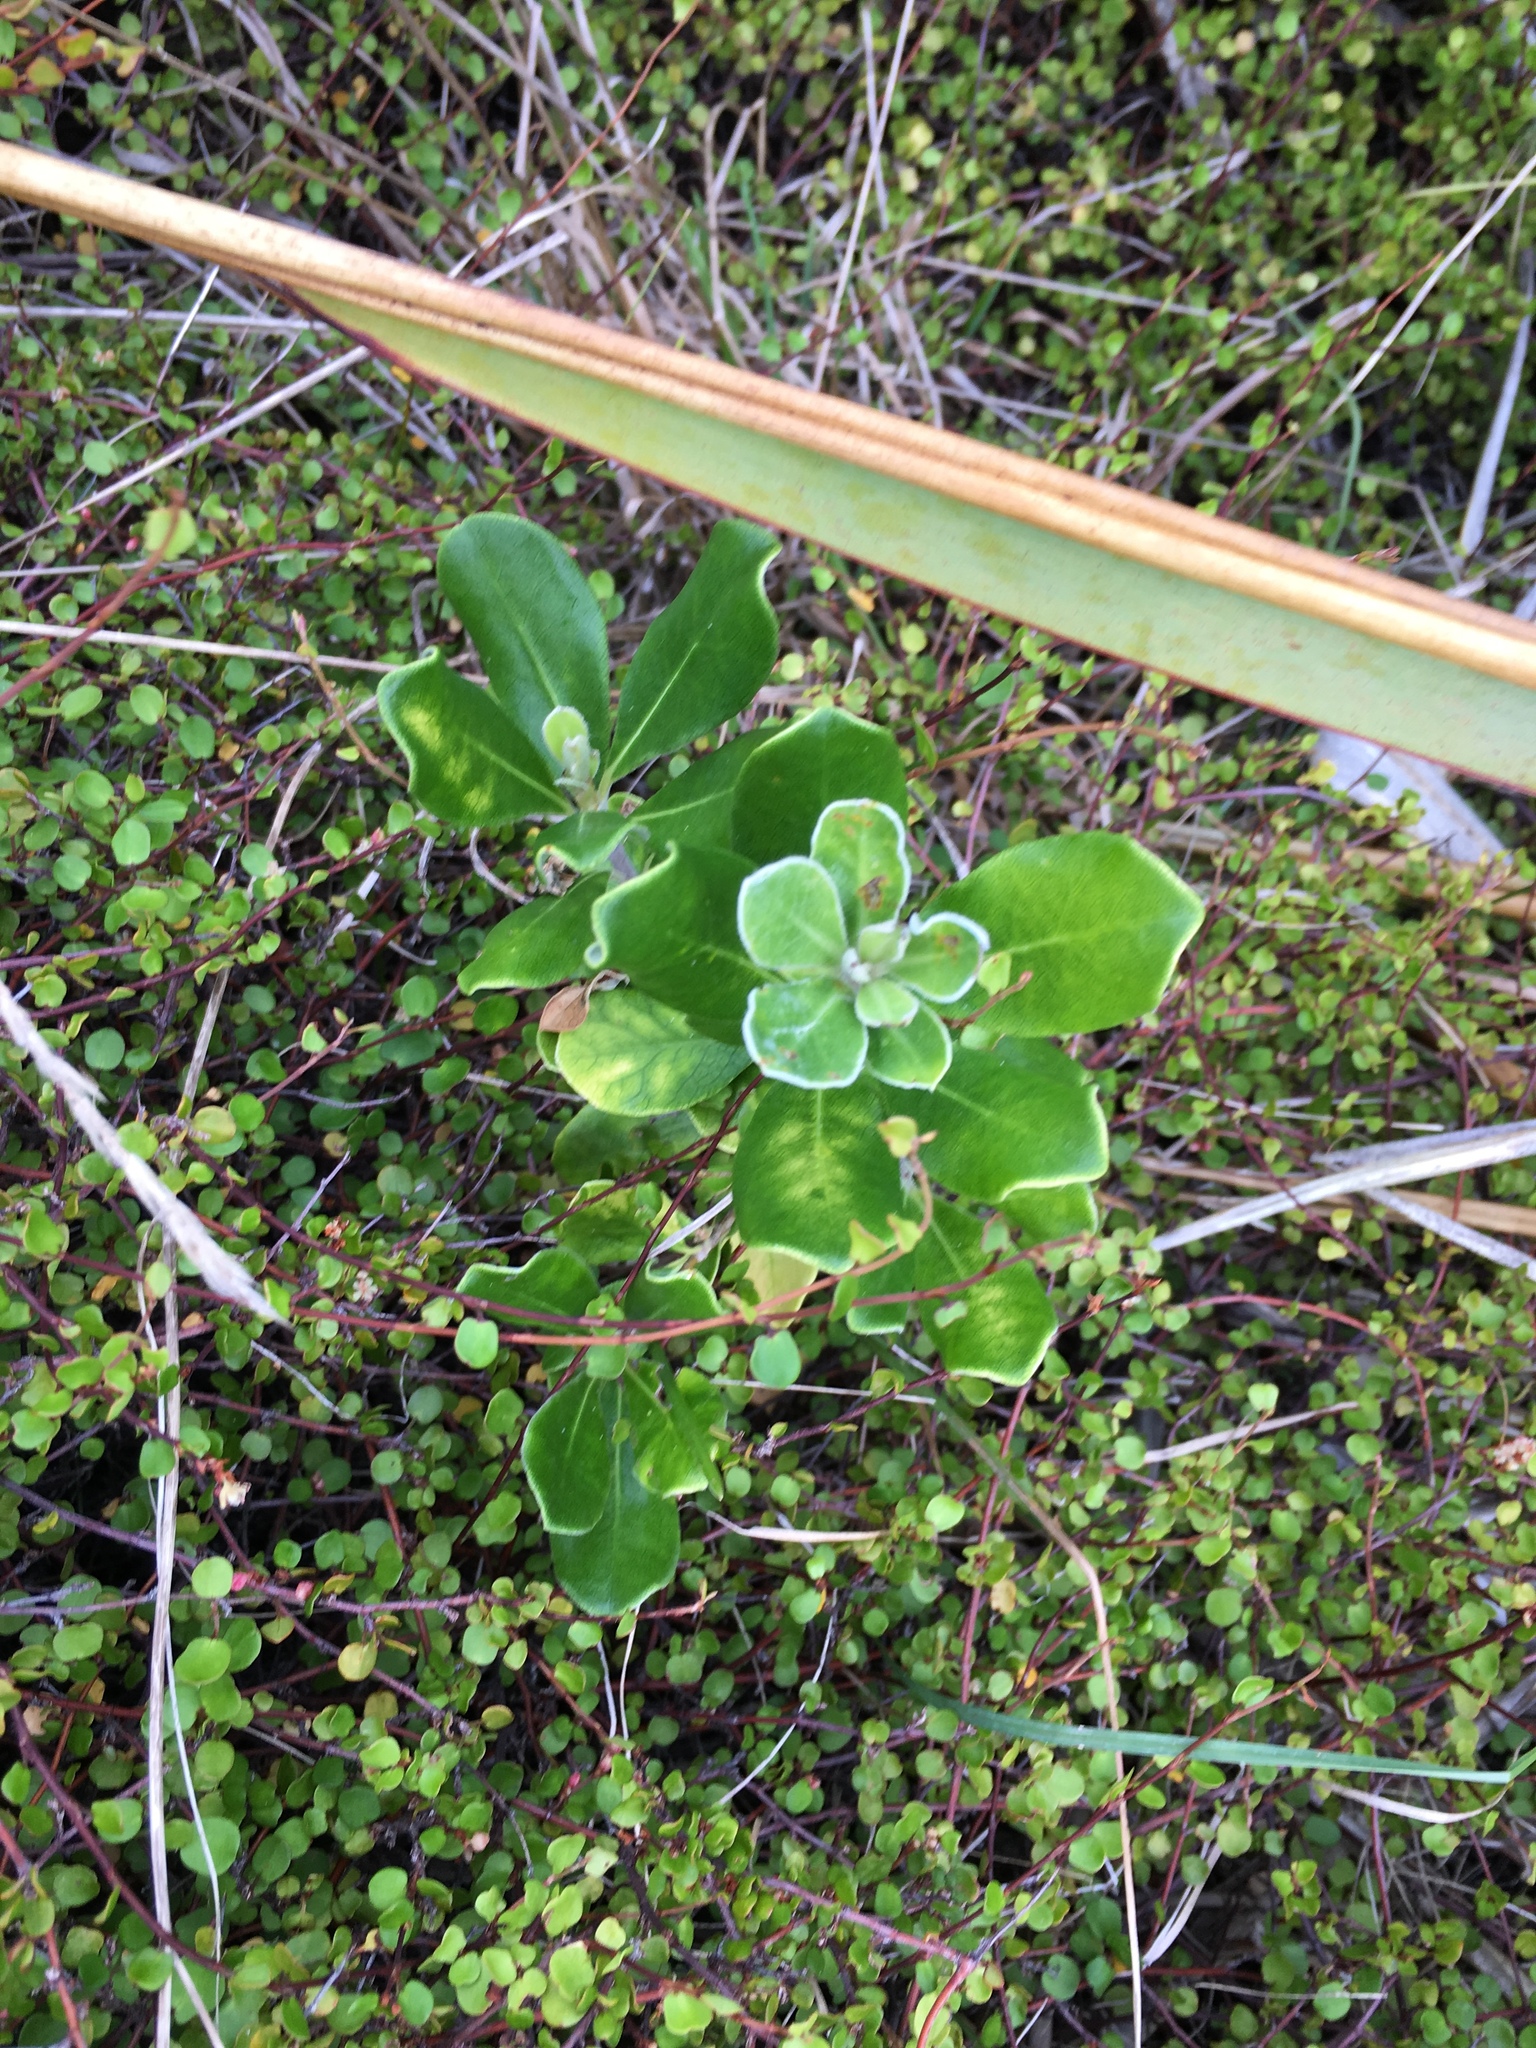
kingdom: Plantae
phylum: Tracheophyta
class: Magnoliopsida
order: Apiales
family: Pittosporaceae
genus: Pittosporum
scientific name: Pittosporum crassifolium
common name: Karo
